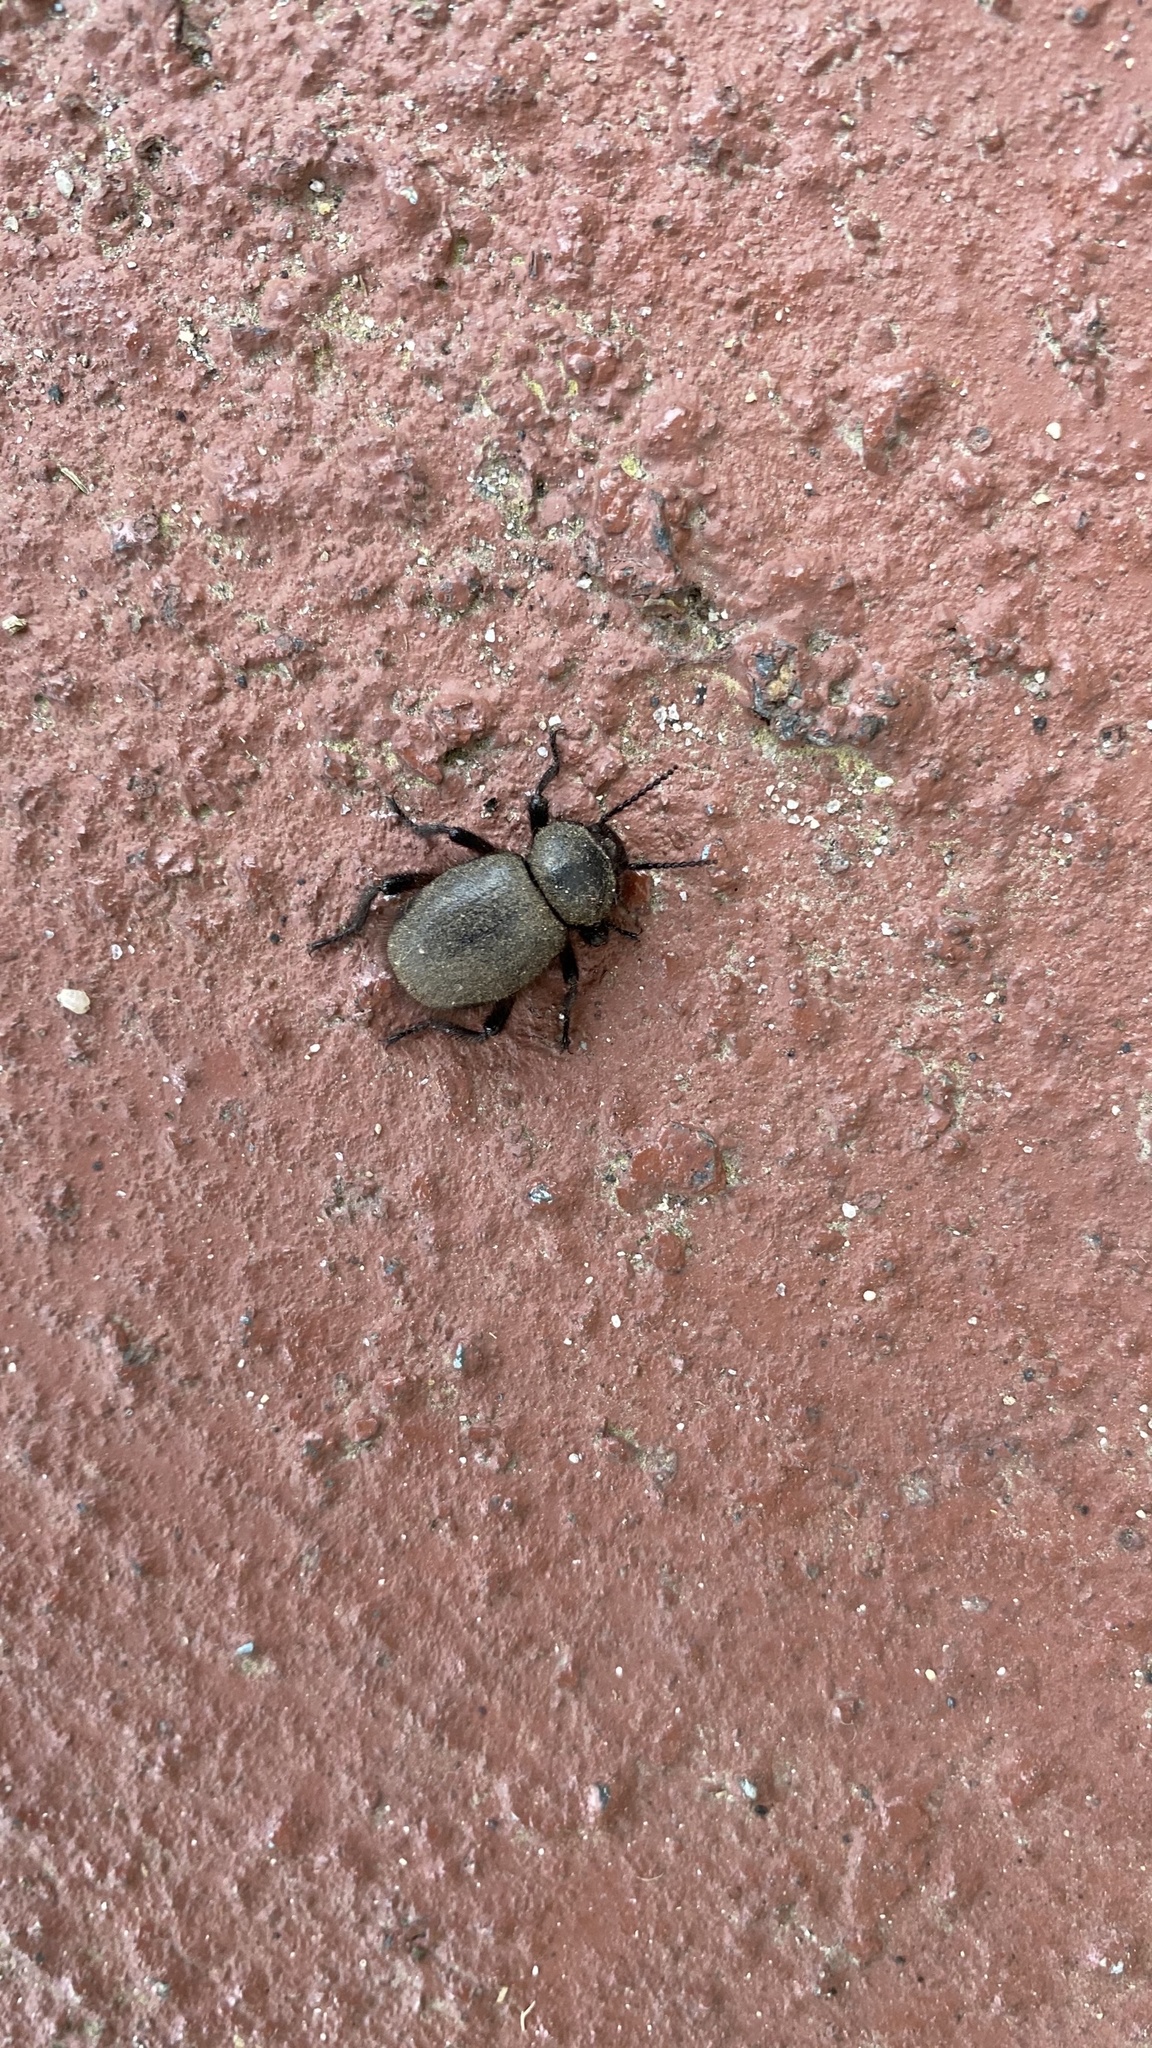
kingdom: Animalia
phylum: Arthropoda
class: Insecta
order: Coleoptera
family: Tenebrionidae
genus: Eleodes
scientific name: Eleodes osculans
